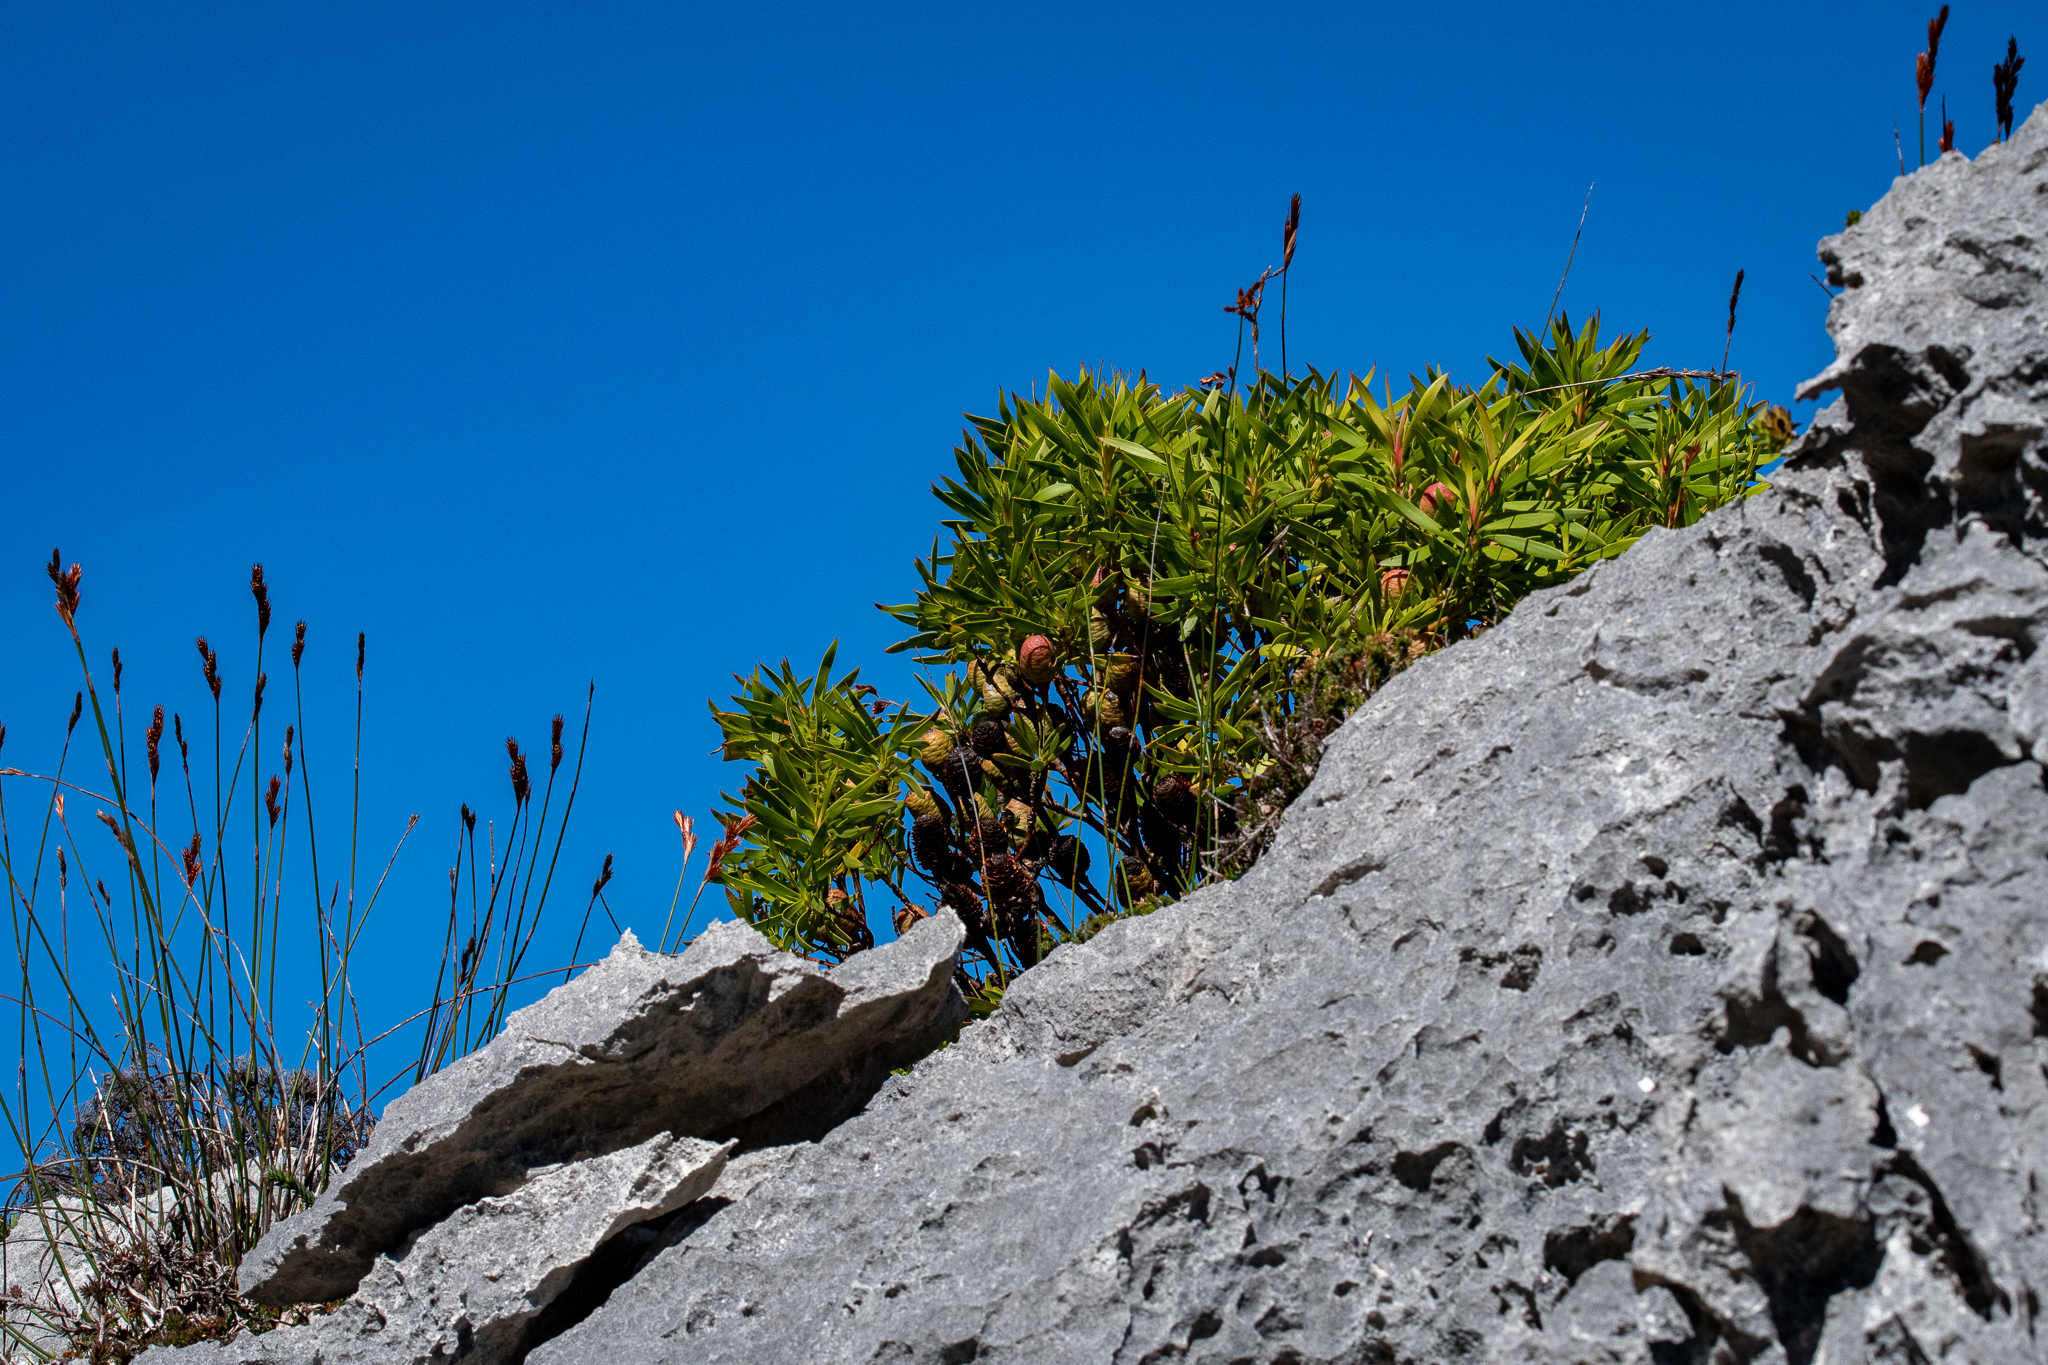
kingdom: Plantae
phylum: Tracheophyta
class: Magnoliopsida
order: Proteales
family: Proteaceae
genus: Leucadendron
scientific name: Leucadendron meridianum
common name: Limestone conebush
